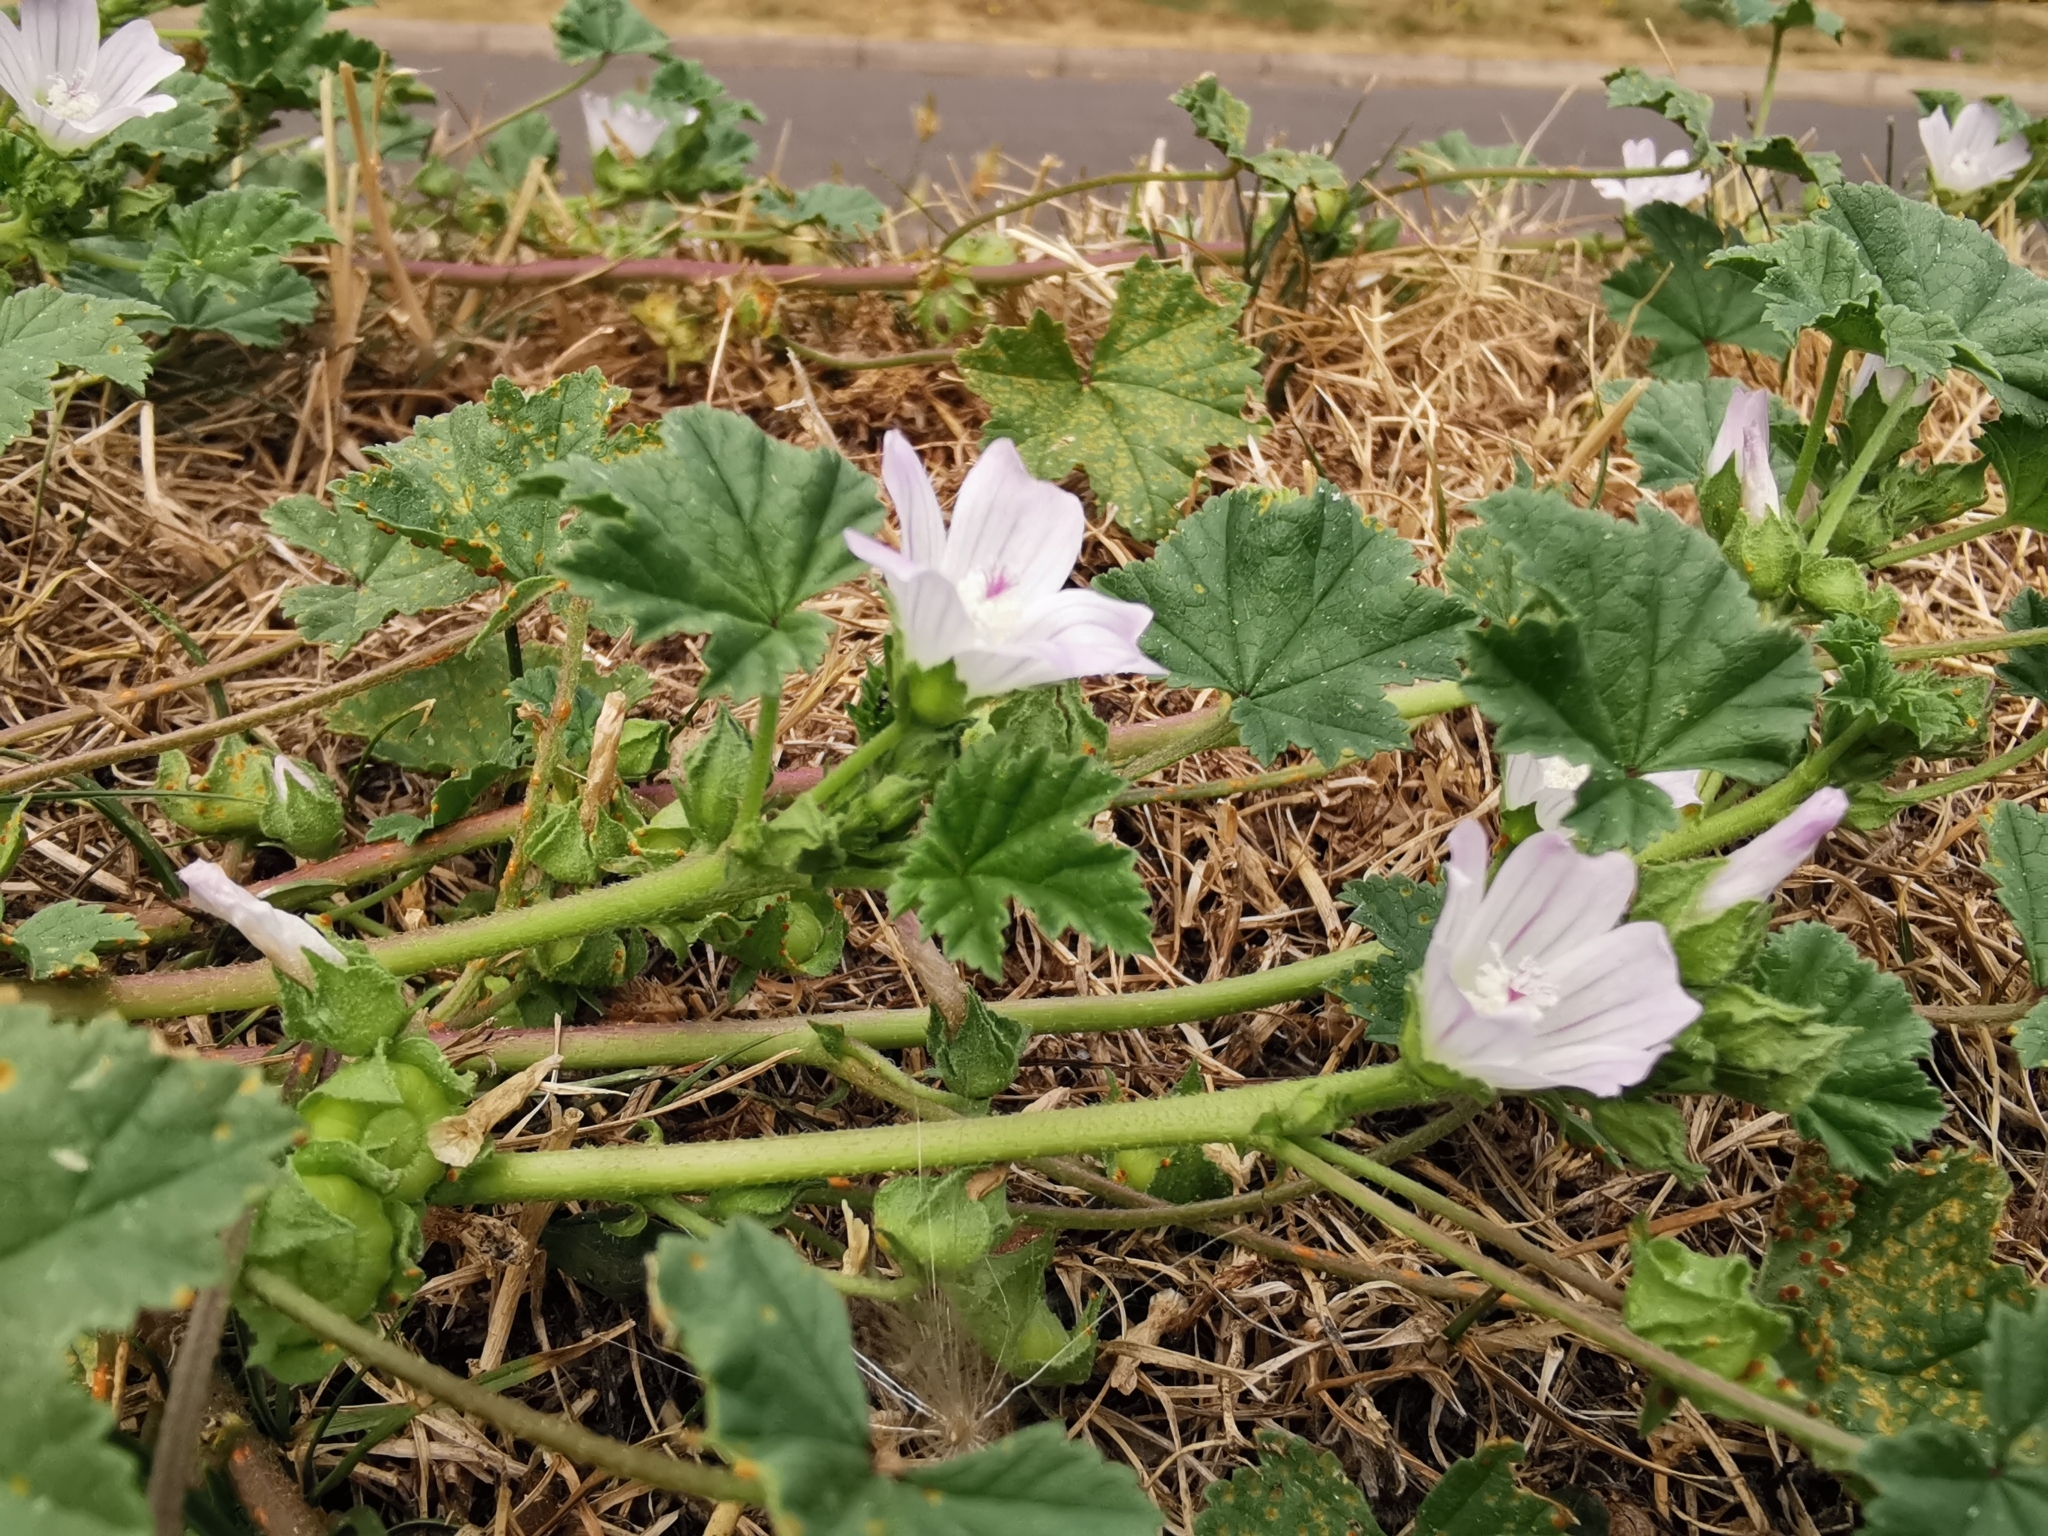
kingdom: Plantae
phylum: Tracheophyta
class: Magnoliopsida
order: Malvales
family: Malvaceae
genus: Malva
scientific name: Malva neglecta
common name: Common mallow
